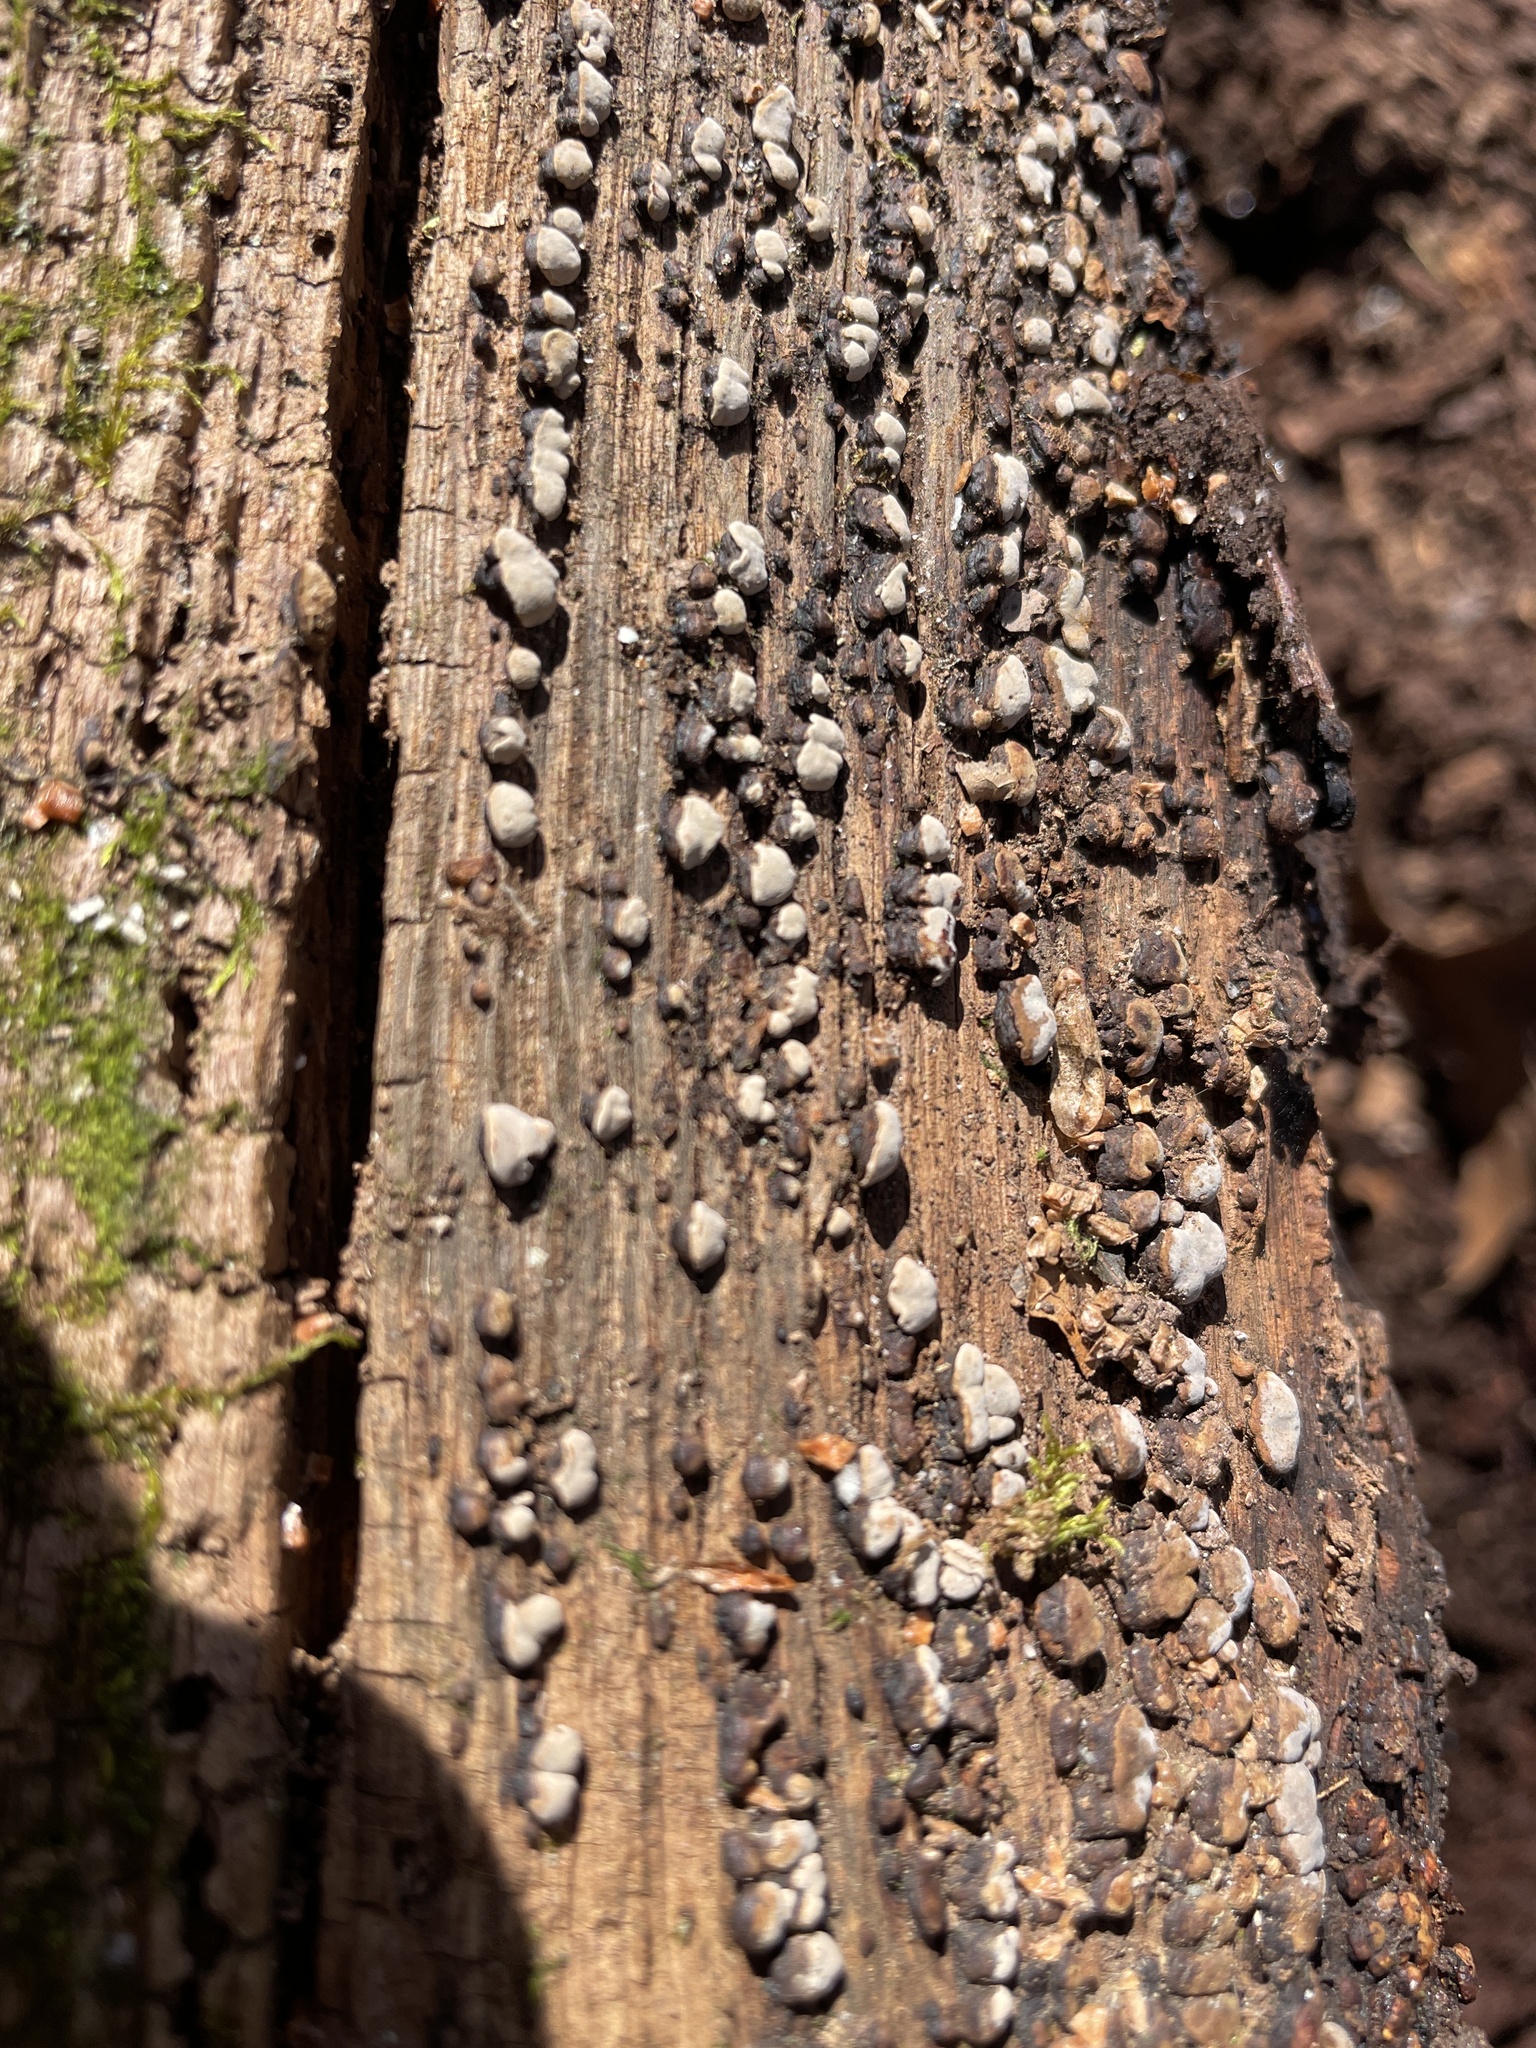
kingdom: Fungi
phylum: Basidiomycota
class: Agaricomycetes
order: Russulales
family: Stereaceae
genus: Xylobolus
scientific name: Xylobolus frustulatus
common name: Ceramic parchment
